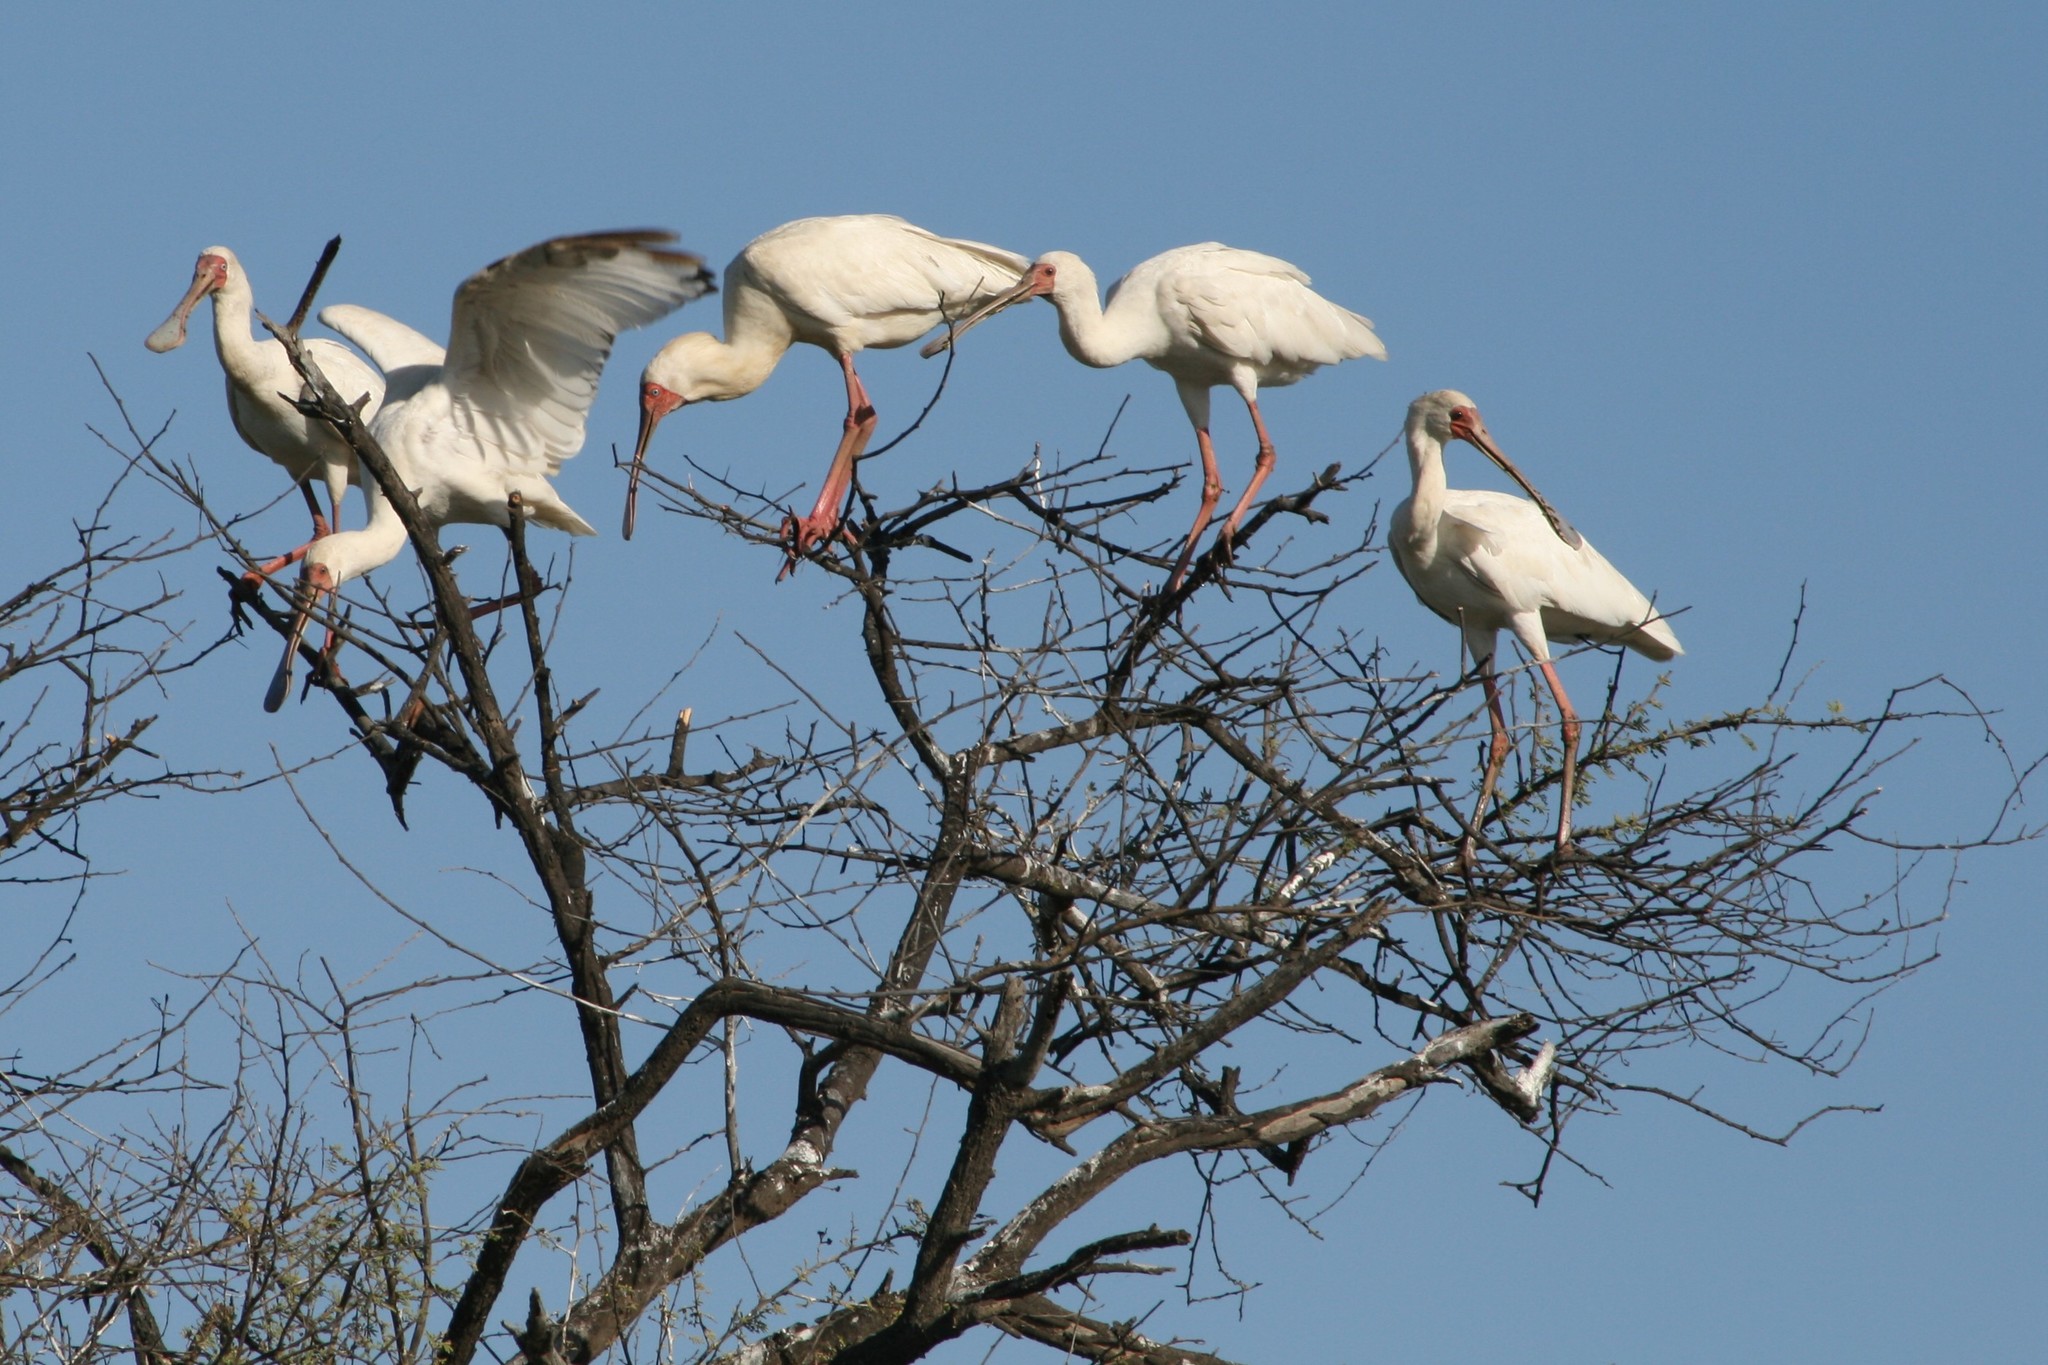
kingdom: Animalia
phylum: Chordata
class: Aves
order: Pelecaniformes
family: Threskiornithidae
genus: Platalea
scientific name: Platalea alba
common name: African spoonbill
